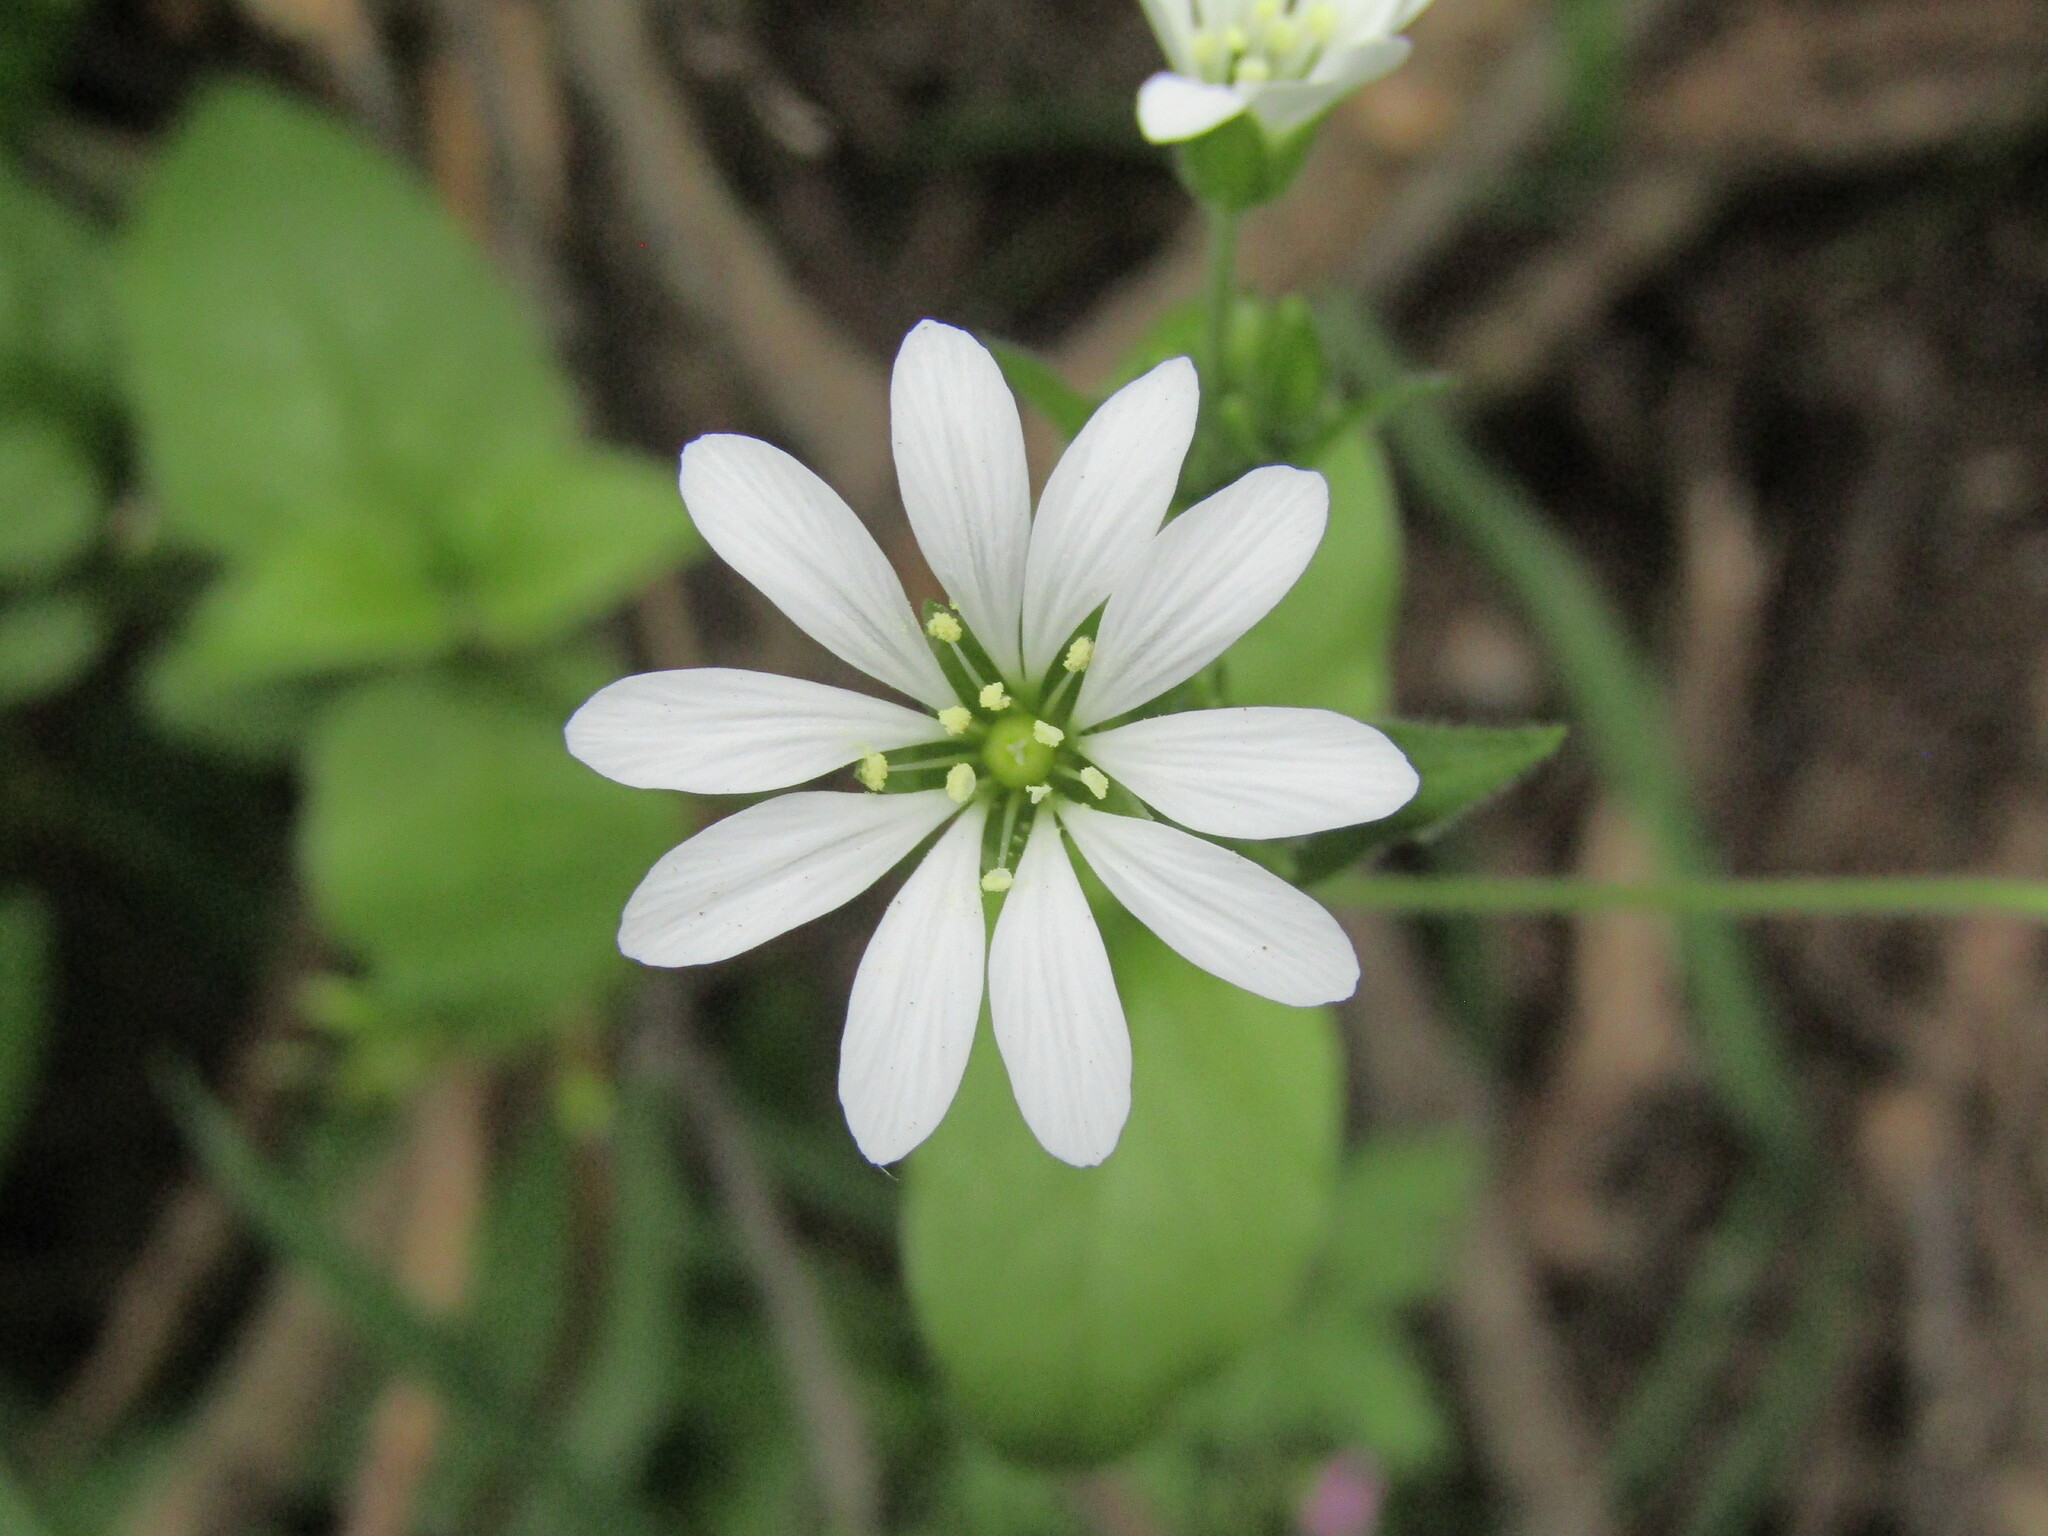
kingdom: Plantae
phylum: Tracheophyta
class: Magnoliopsida
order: Caryophyllales
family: Caryophyllaceae
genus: Stellaria
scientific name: Stellaria chilensis
